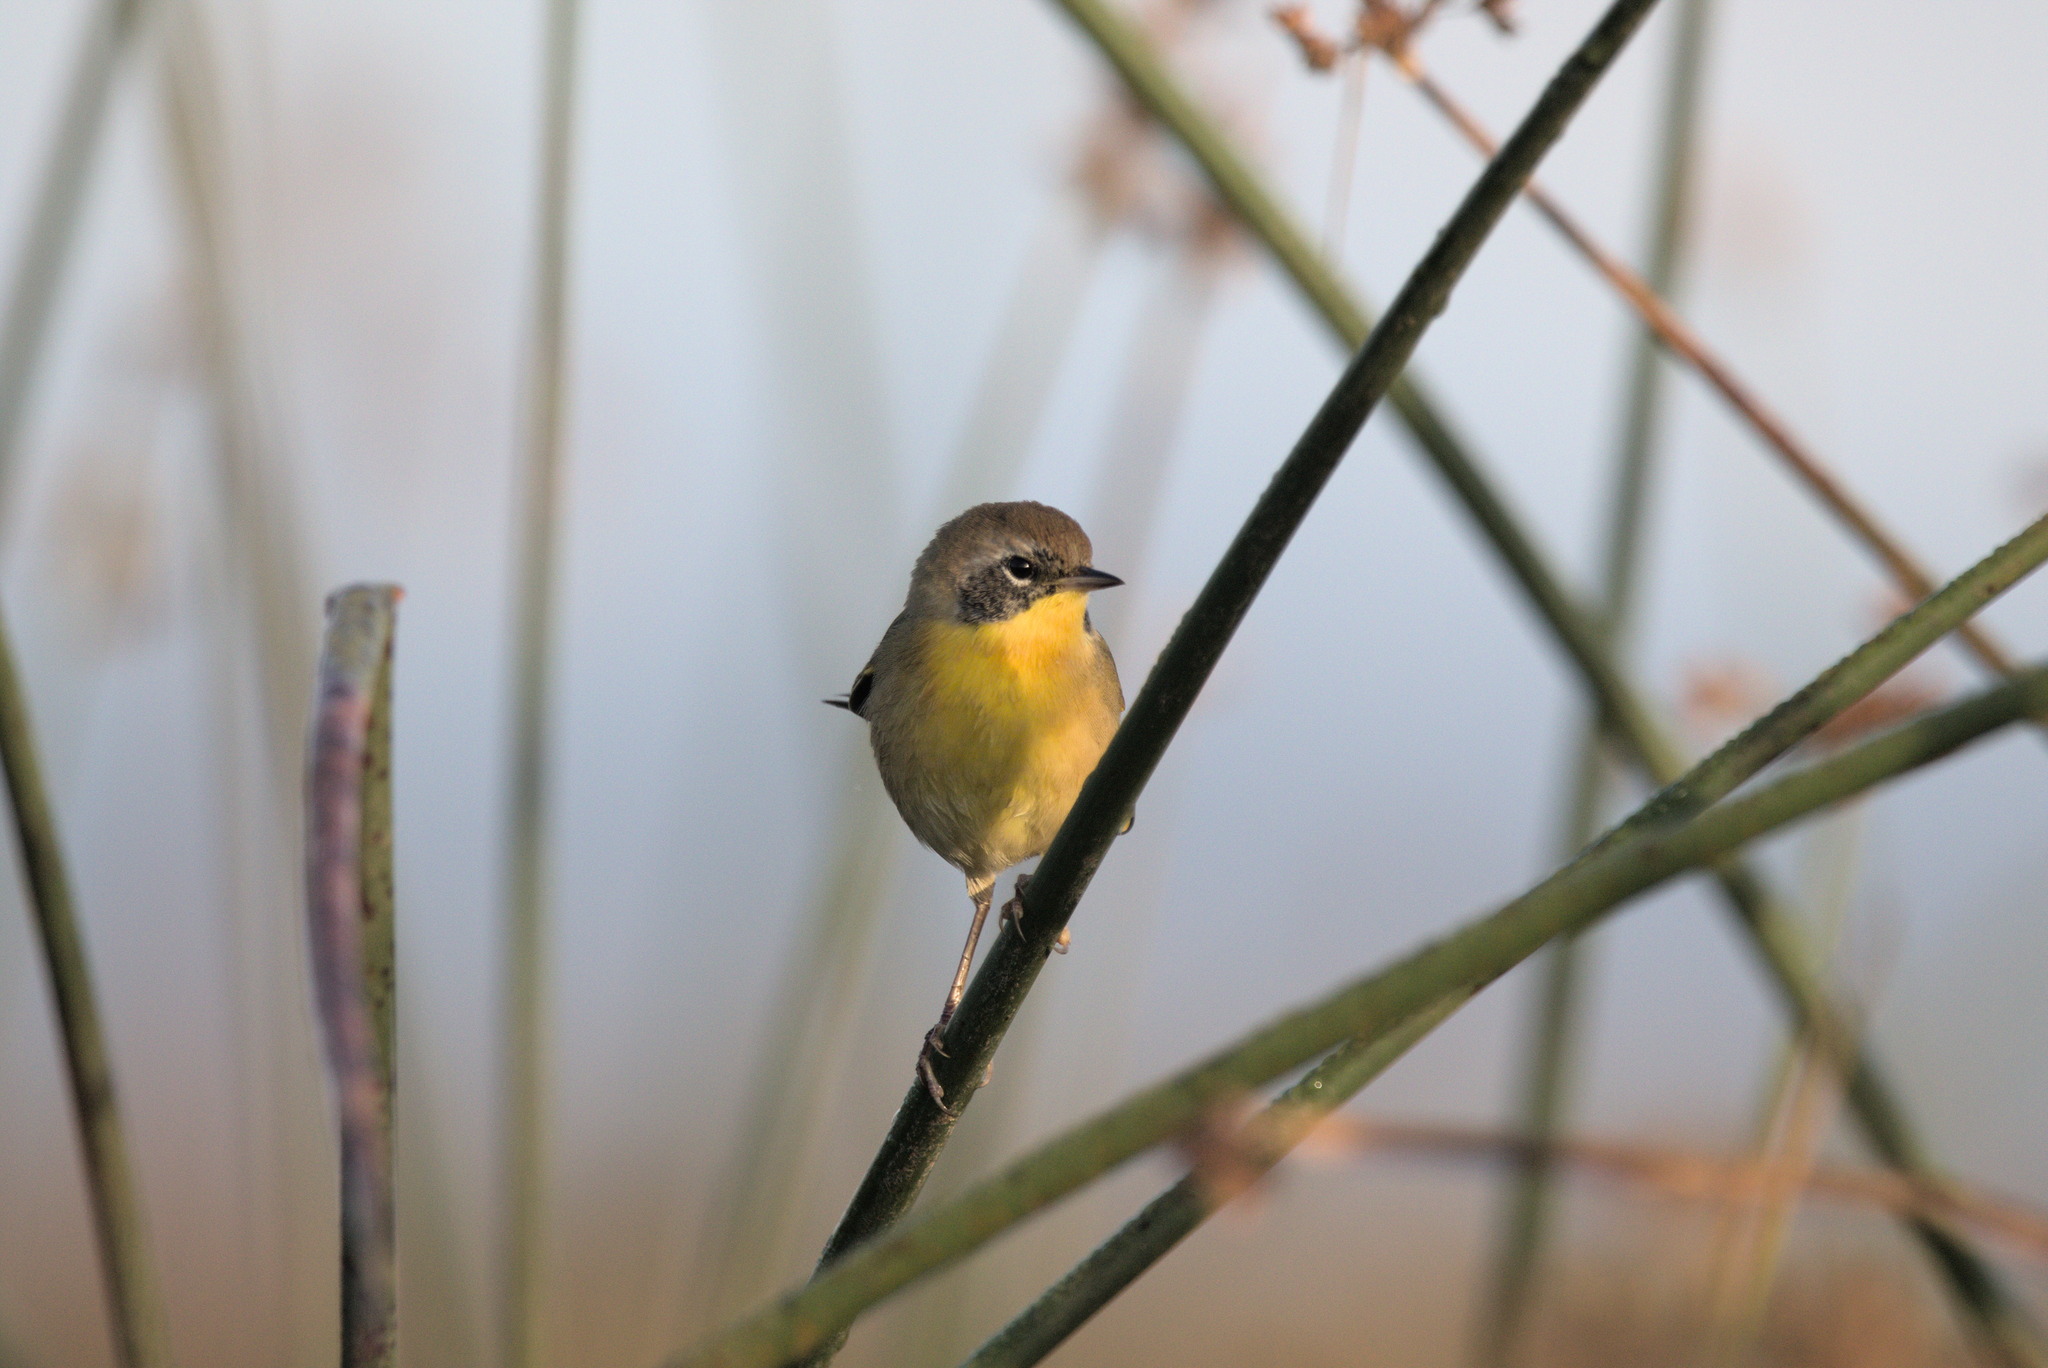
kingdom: Animalia
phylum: Chordata
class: Aves
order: Passeriformes
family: Parulidae
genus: Geothlypis
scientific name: Geothlypis trichas
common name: Common yellowthroat
